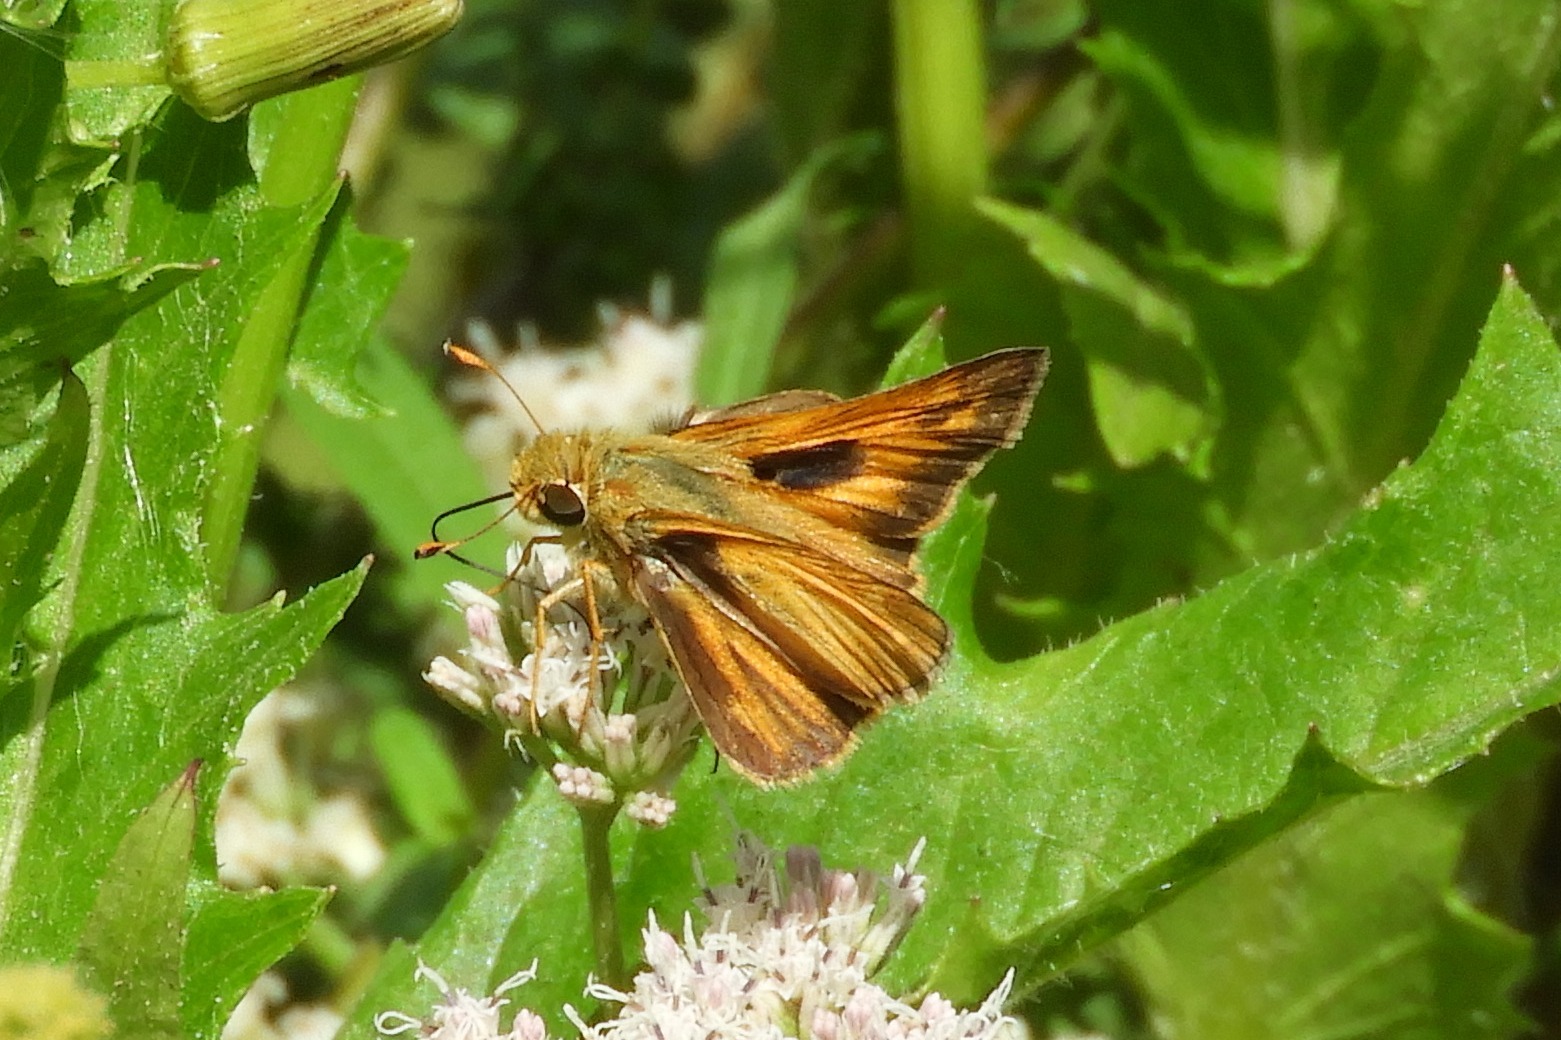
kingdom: Animalia
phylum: Arthropoda
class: Insecta
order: Lepidoptera
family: Hesperiidae
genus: Atalopedes
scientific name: Atalopedes
